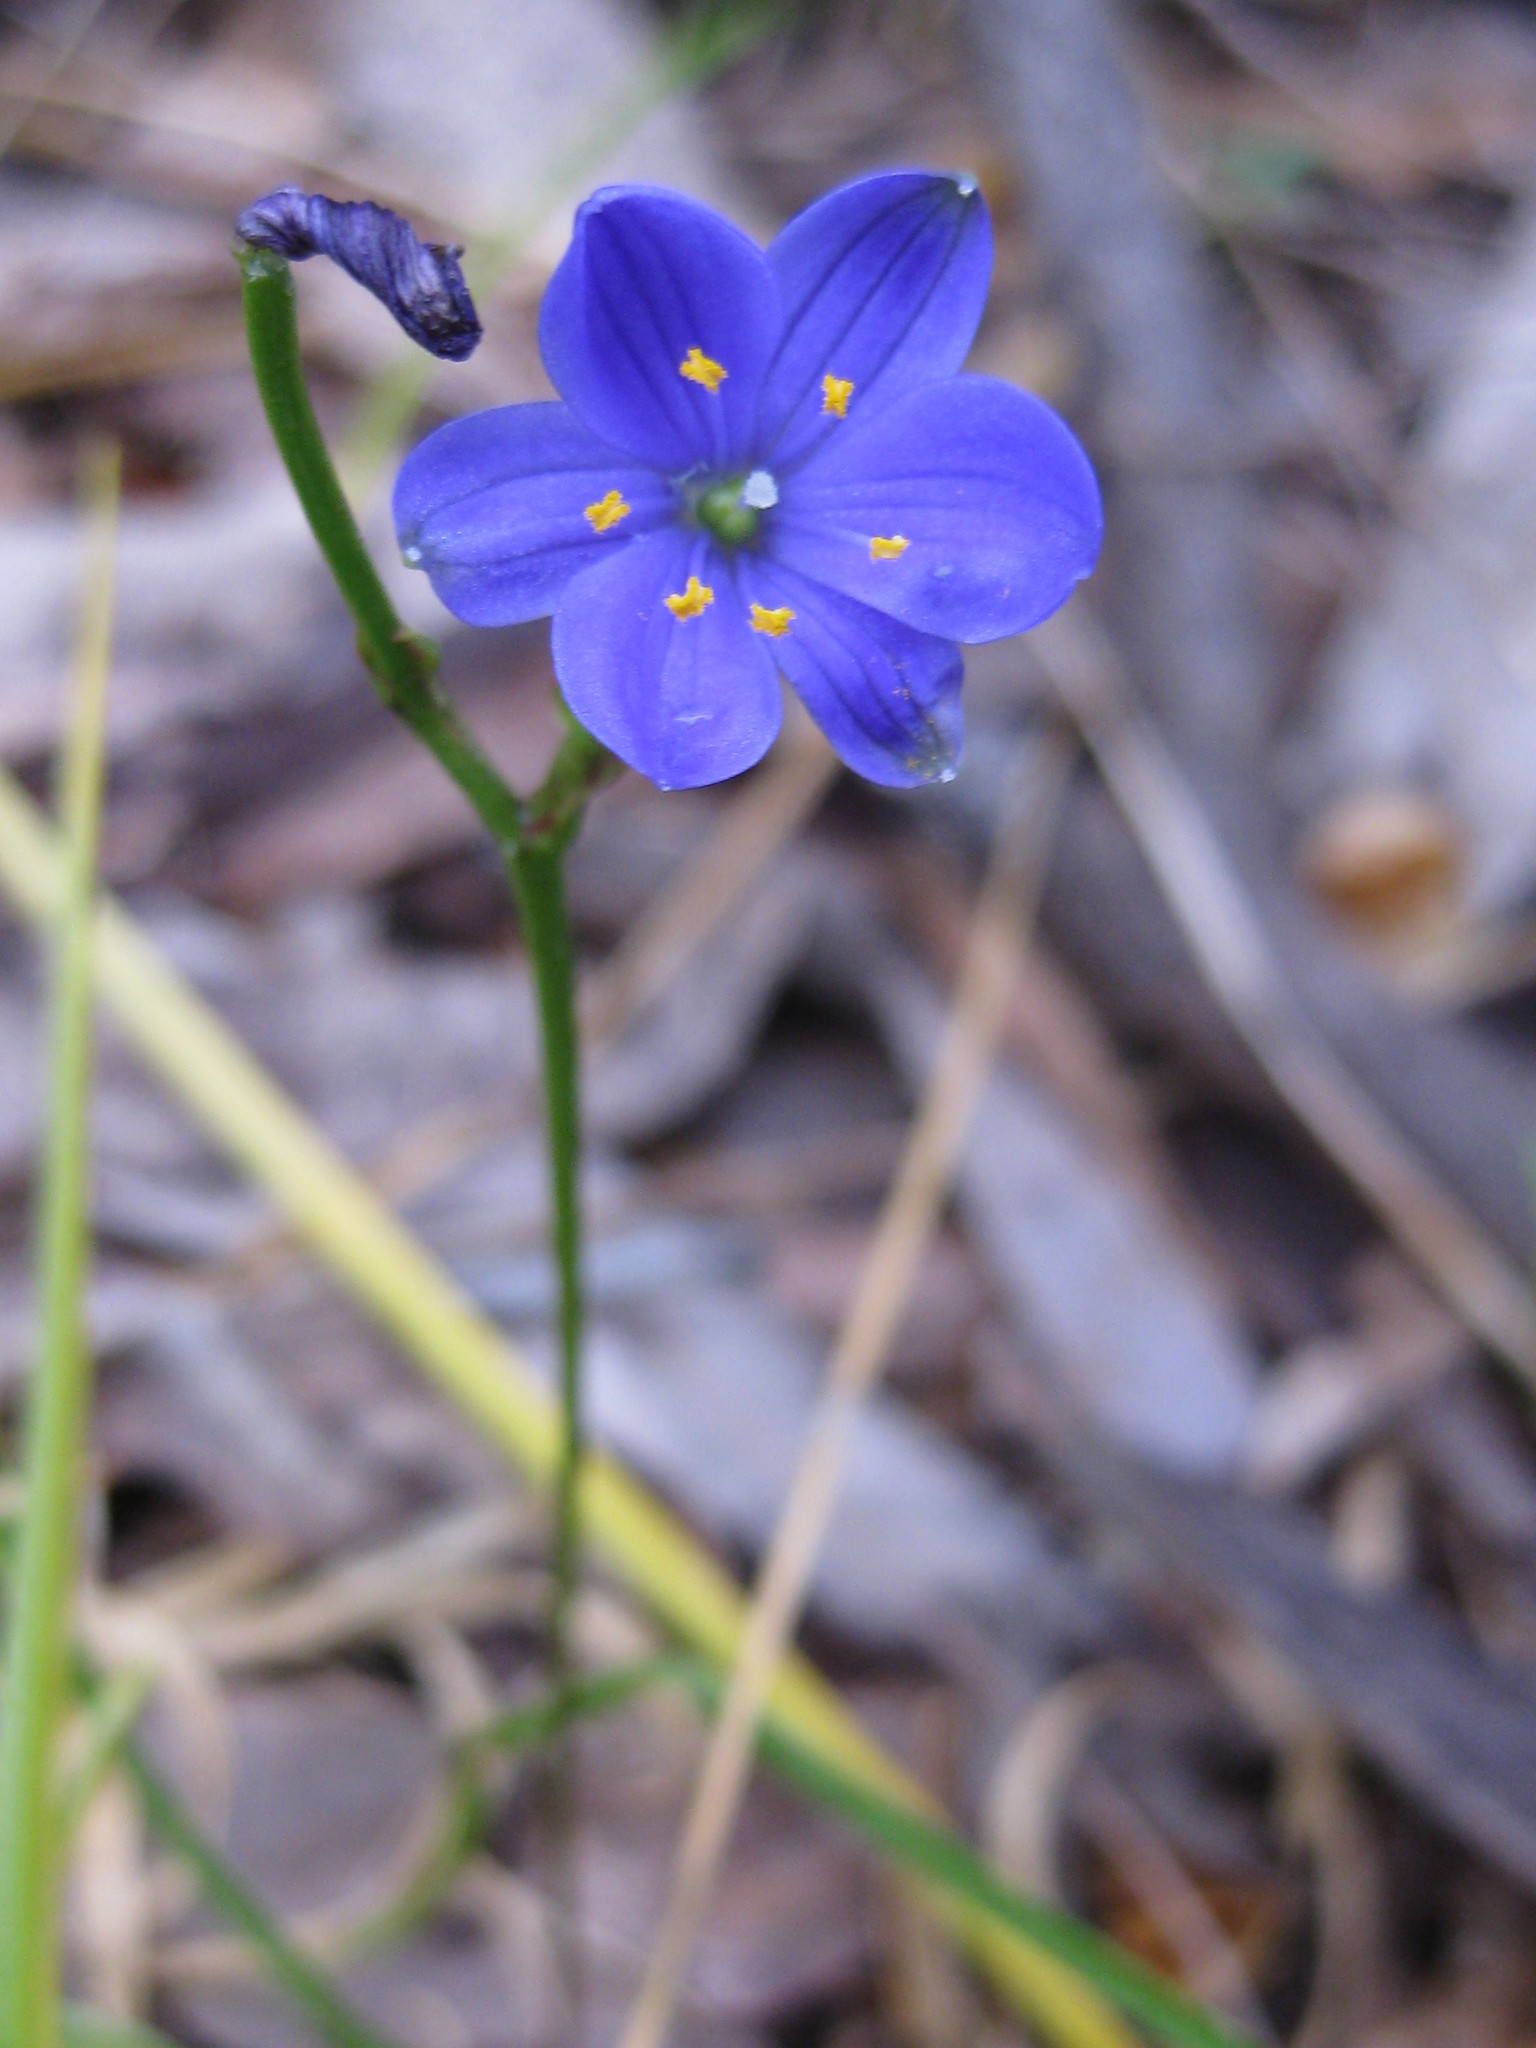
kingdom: Plantae
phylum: Tracheophyta
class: Liliopsida
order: Asparagales
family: Asphodelaceae
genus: Chamaescilla
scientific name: Chamaescilla corymbosa
